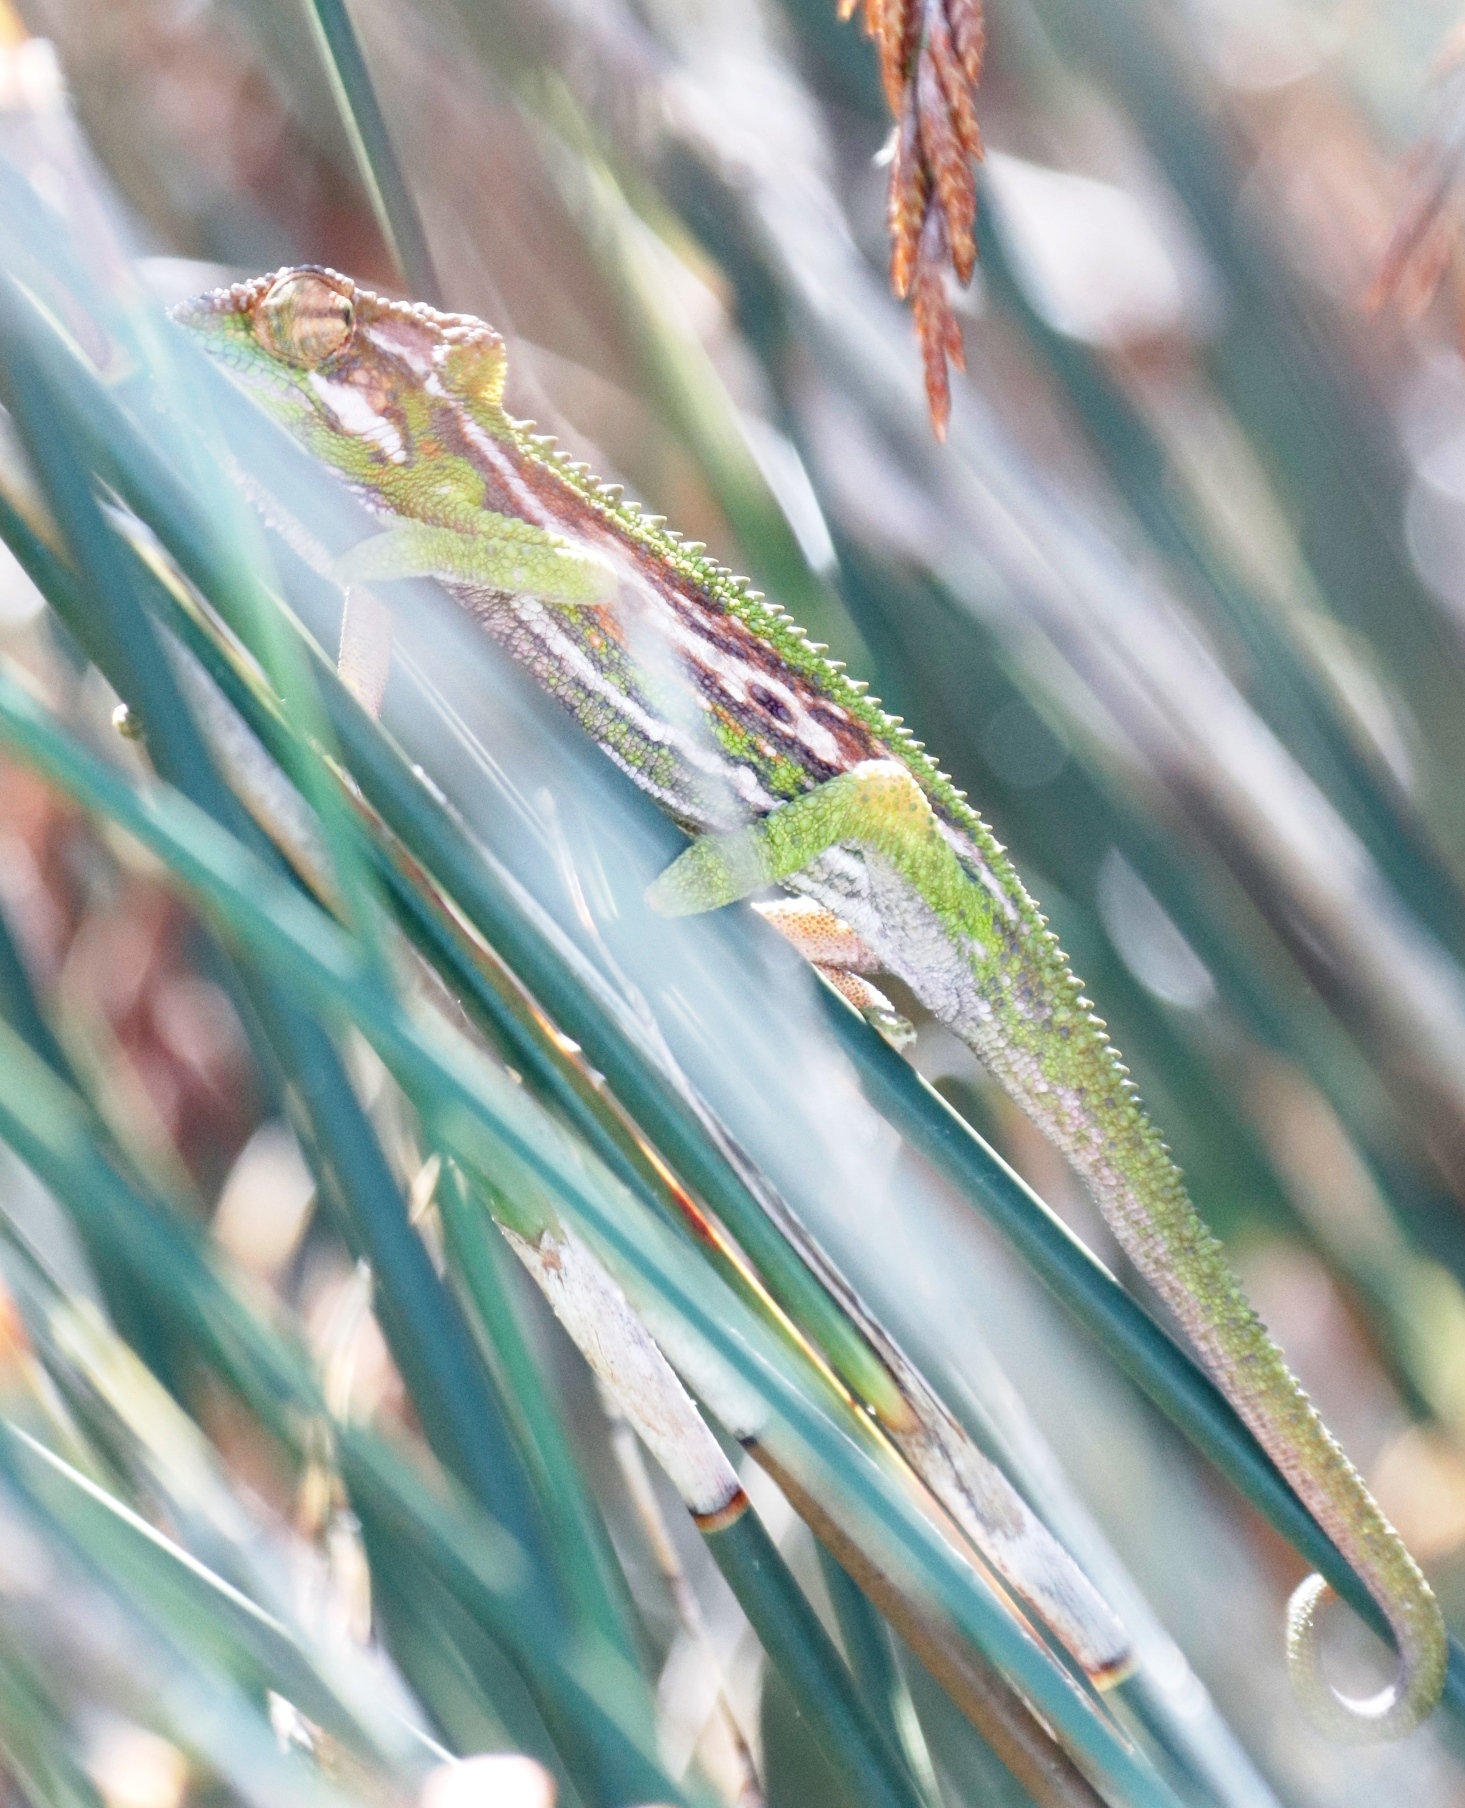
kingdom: Animalia
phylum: Chordata
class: Squamata
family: Chamaeleonidae
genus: Bradypodion
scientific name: Bradypodion pumilum
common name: Cape dwarf chameleon
